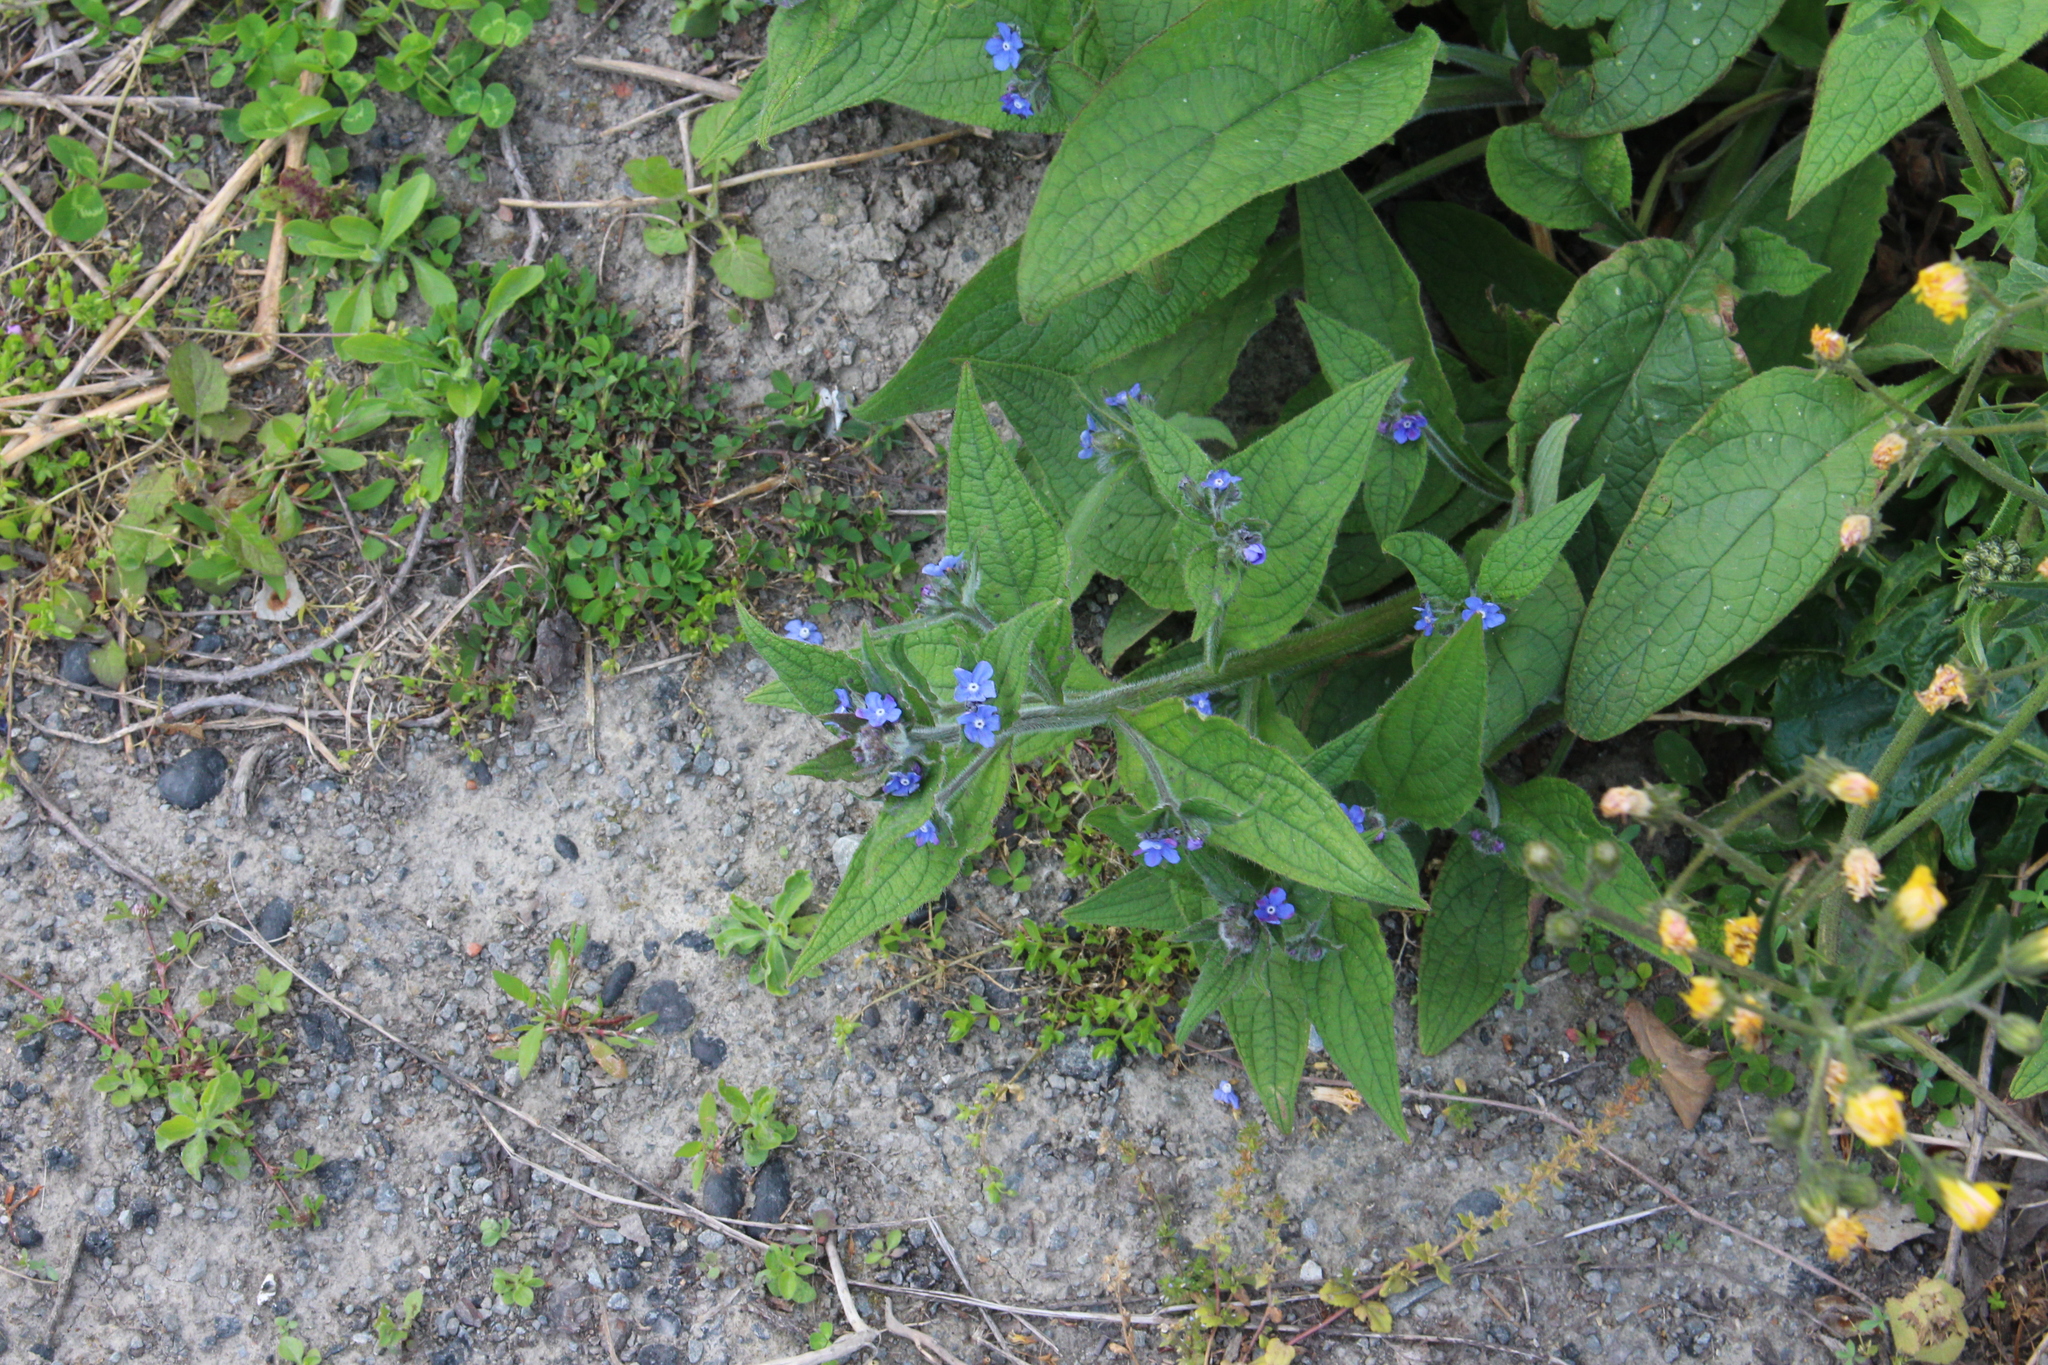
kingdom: Plantae
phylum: Tracheophyta
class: Magnoliopsida
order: Boraginales
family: Boraginaceae
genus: Pentaglottis
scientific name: Pentaglottis sempervirens
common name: Green alkanet
